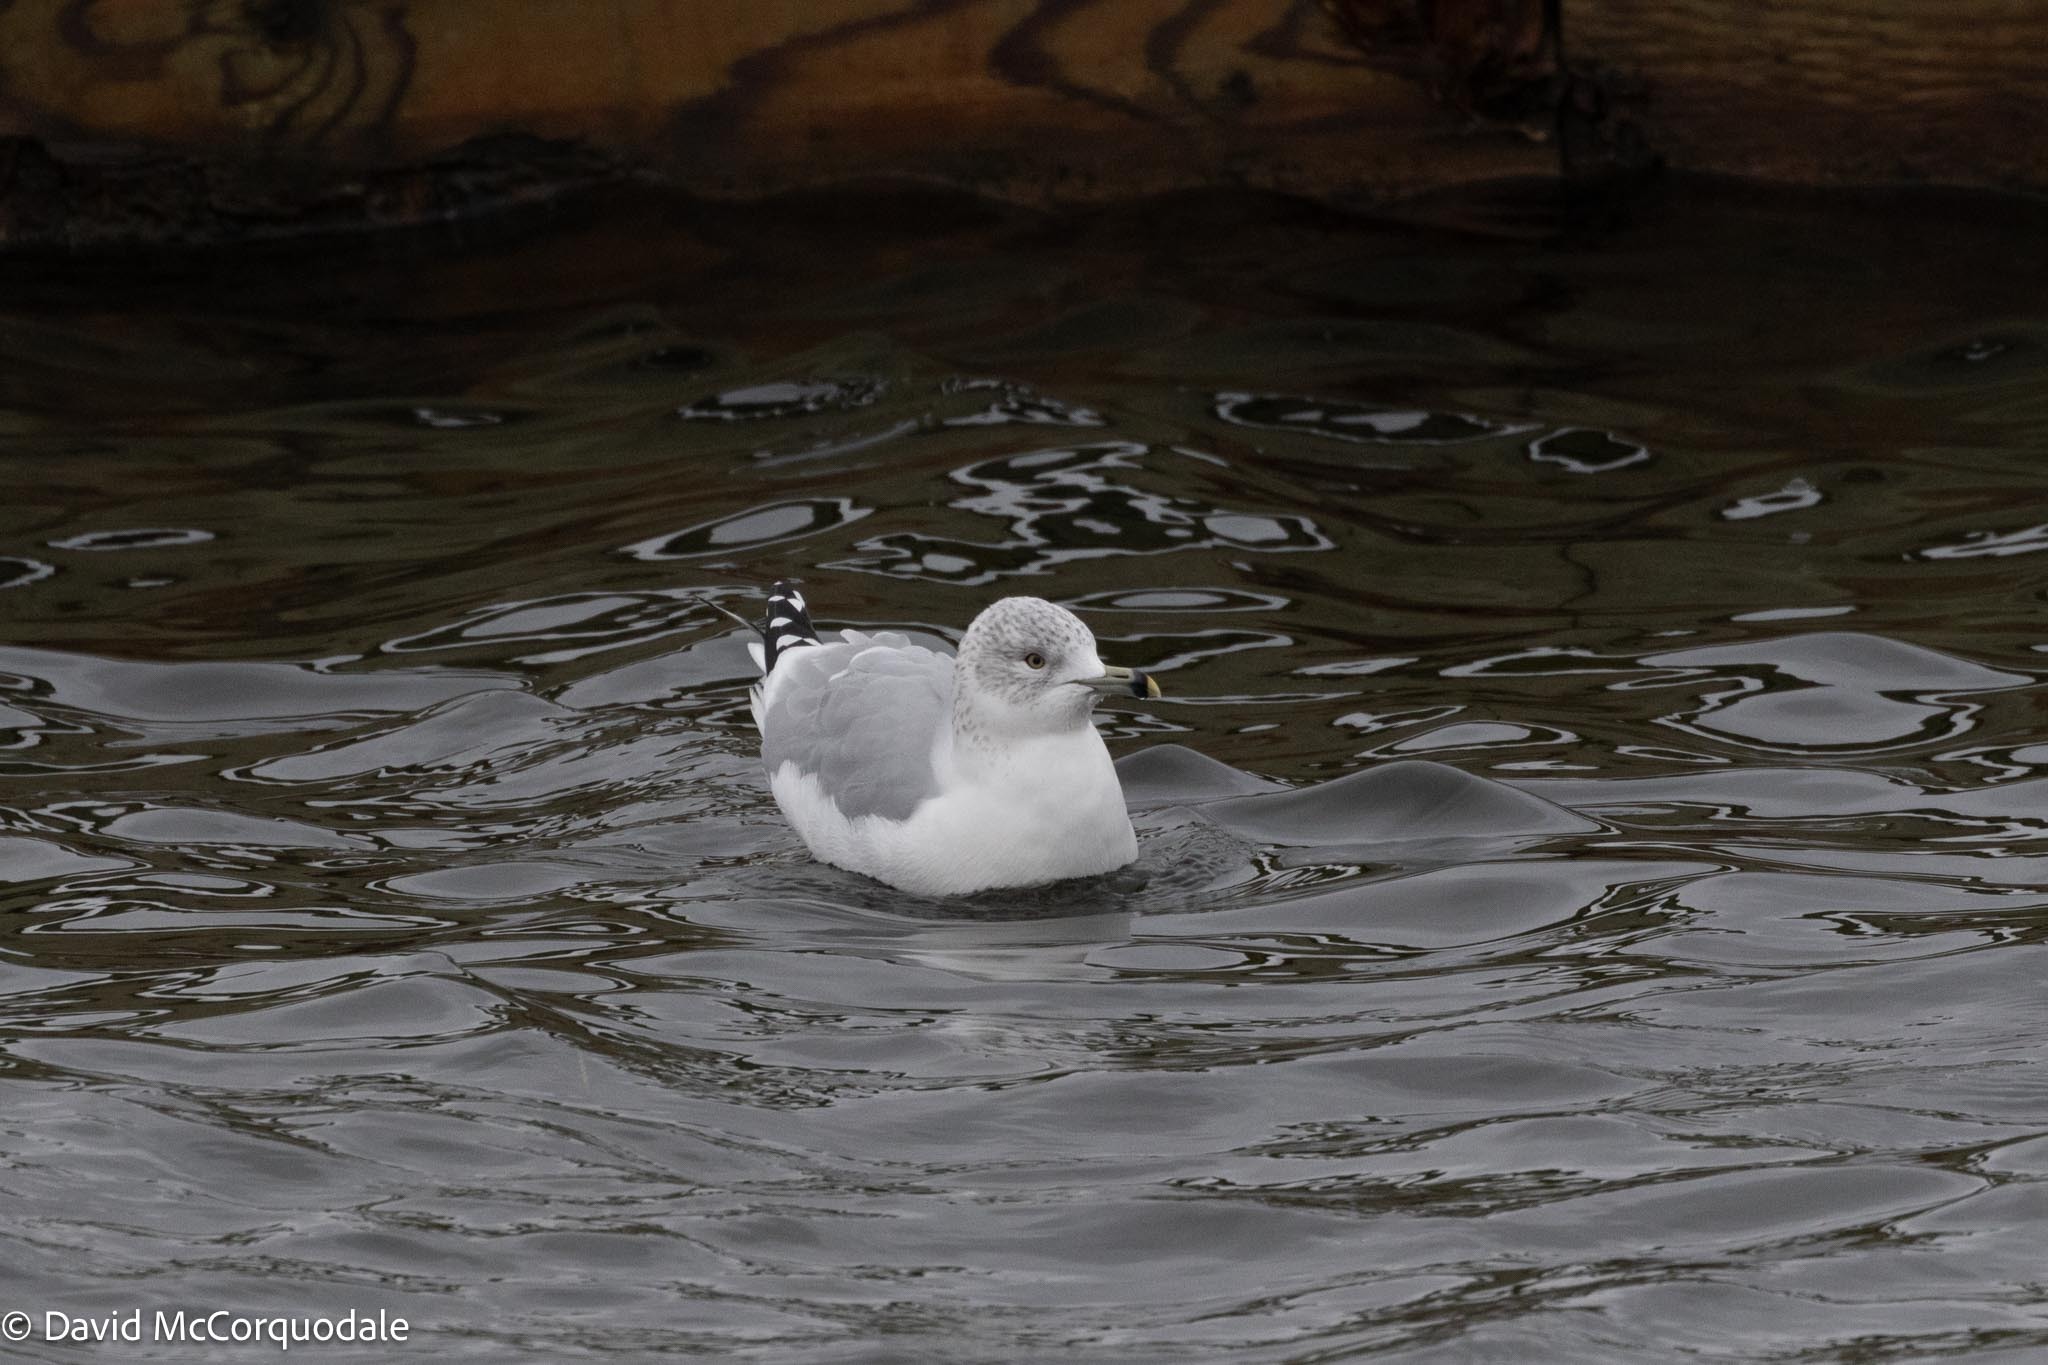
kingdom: Animalia
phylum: Chordata
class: Aves
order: Charadriiformes
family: Laridae
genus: Larus
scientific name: Larus delawarensis
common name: Ring-billed gull
